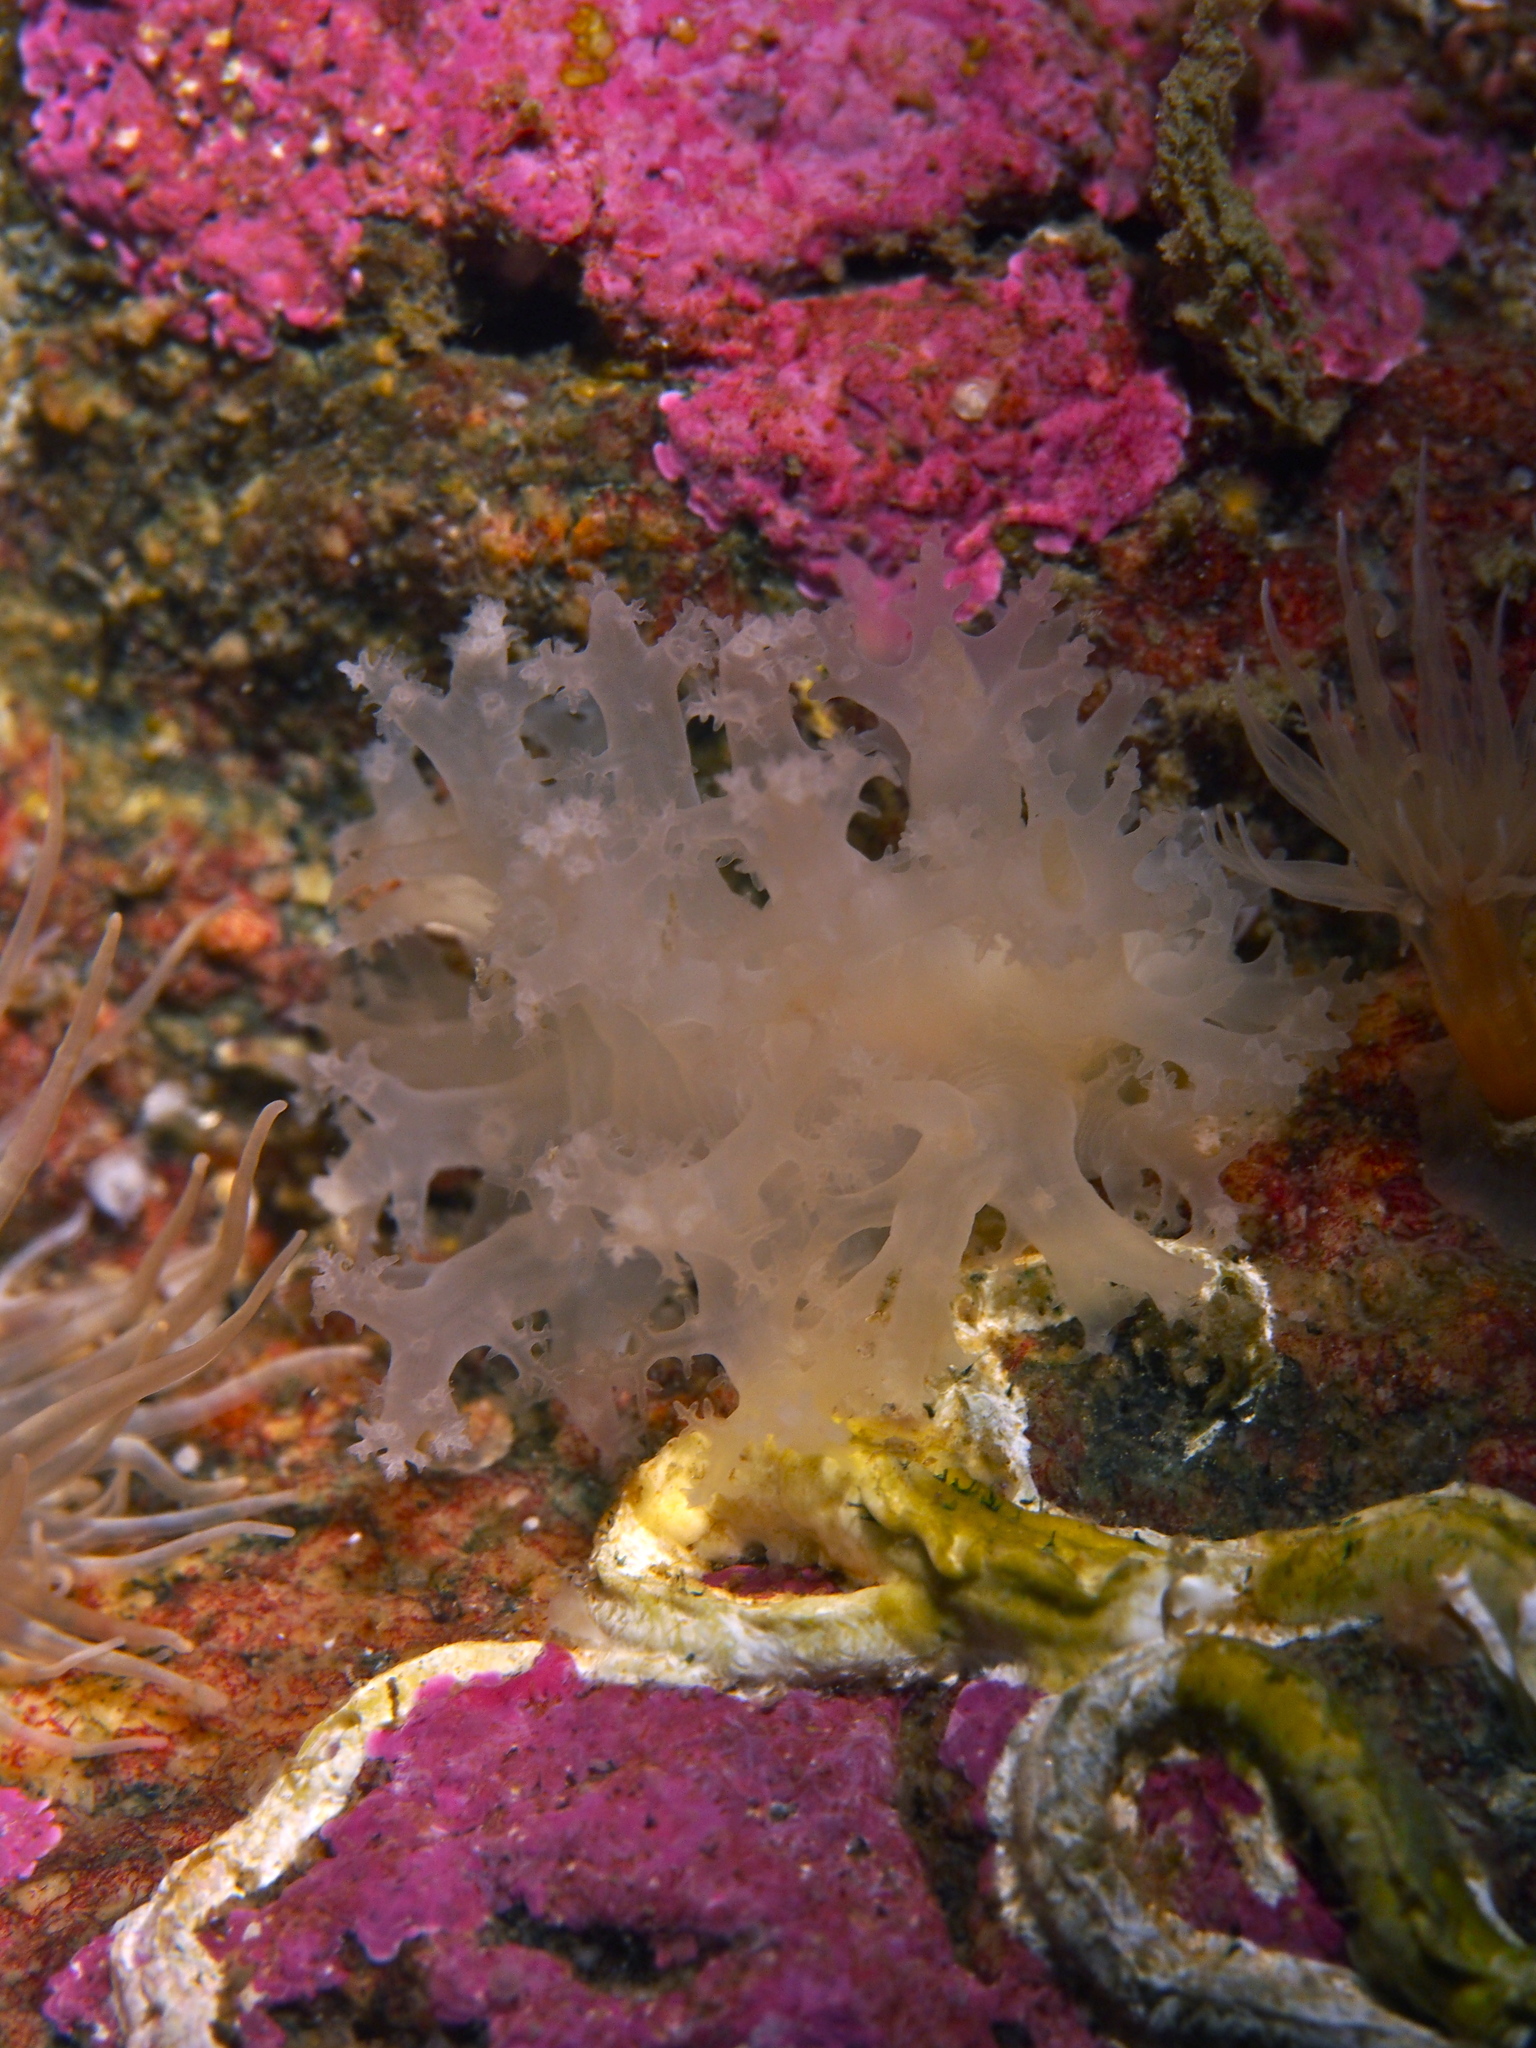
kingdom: Animalia
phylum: Mollusca
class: Gastropoda
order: Nudibranchia
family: Dendronotidae
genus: Dendronotus
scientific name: Dendronotus lacteus
